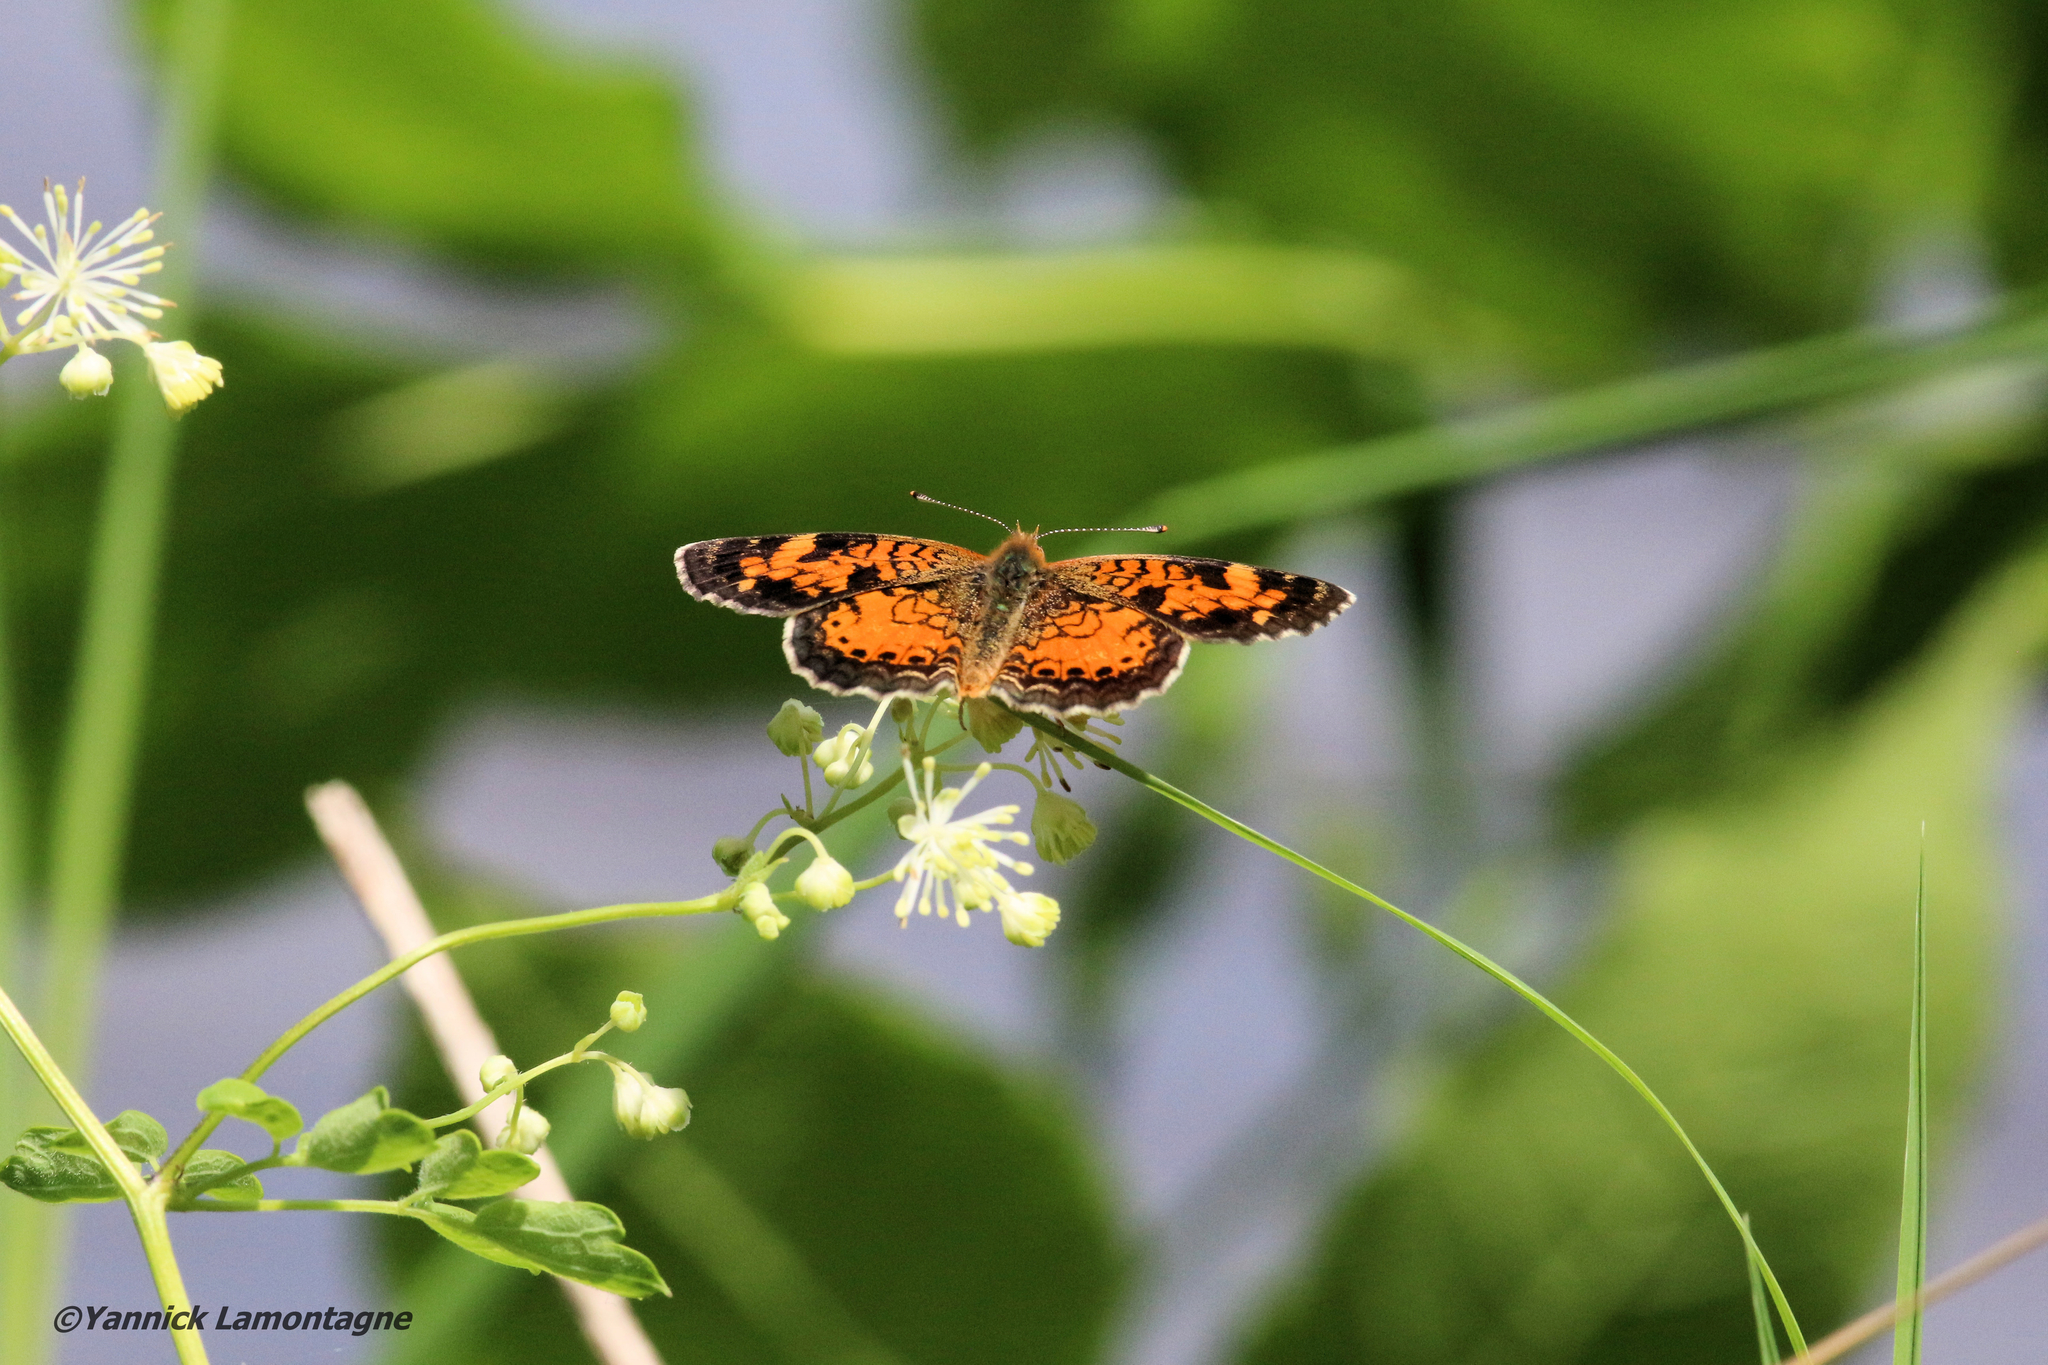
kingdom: Animalia
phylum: Arthropoda
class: Insecta
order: Lepidoptera
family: Nymphalidae
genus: Phyciodes
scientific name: Phyciodes tharos
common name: Pearl crescent
